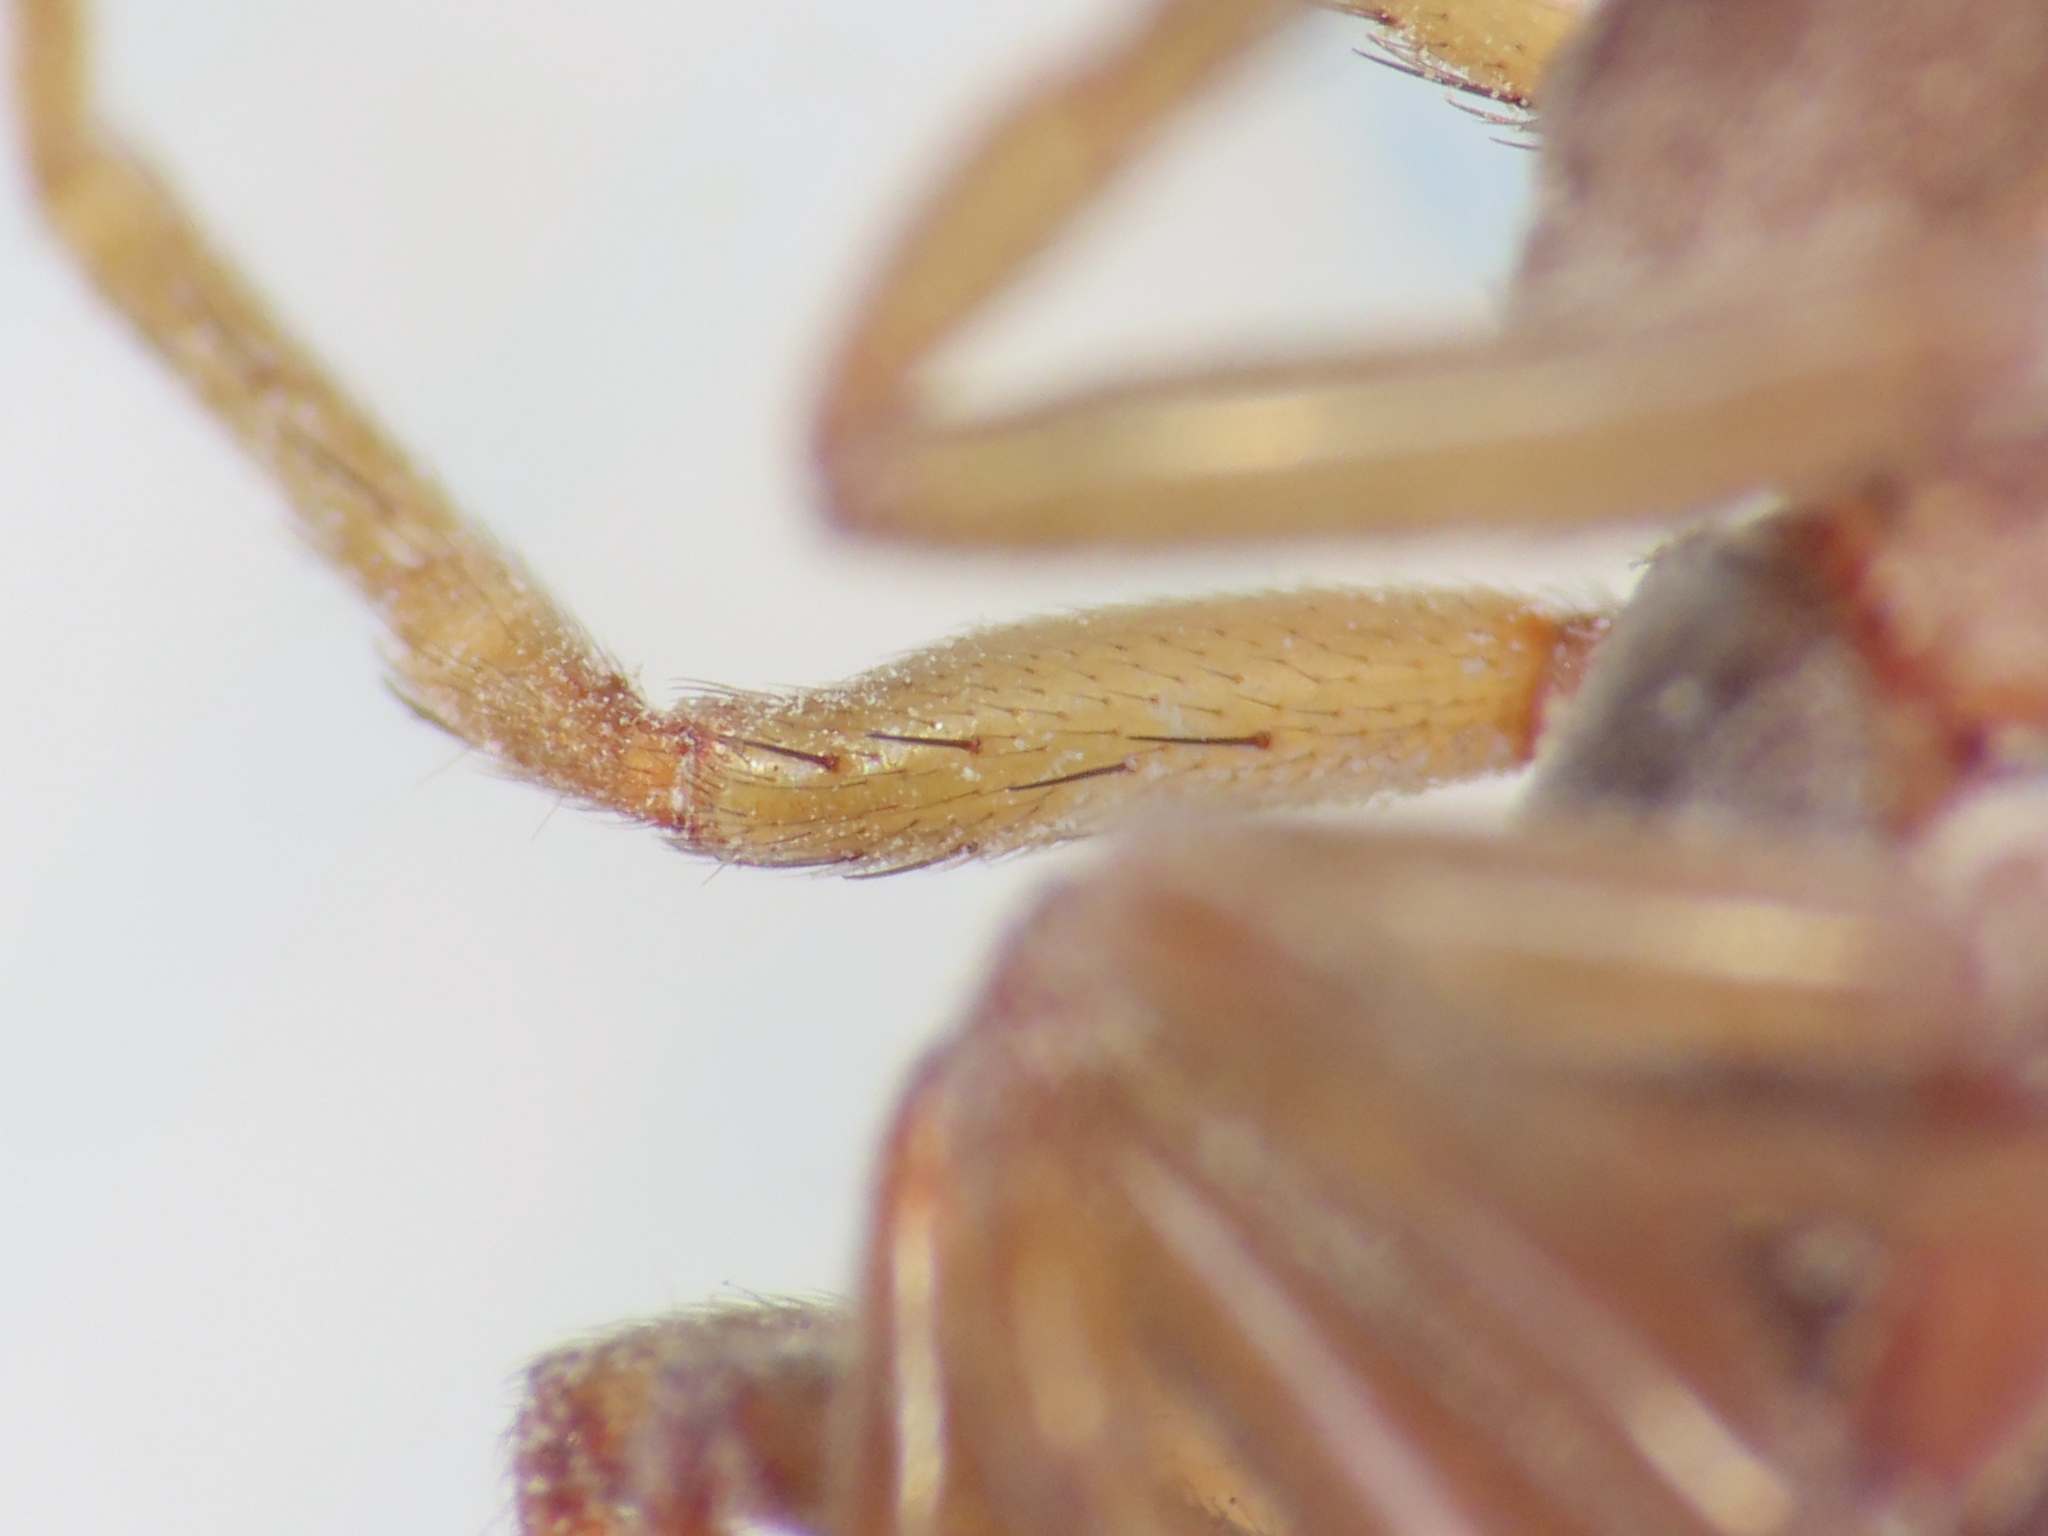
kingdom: Animalia
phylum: Arthropoda
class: Arachnida
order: Araneae
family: Dysderidae
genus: Harpactea
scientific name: Harpactea longobarda
